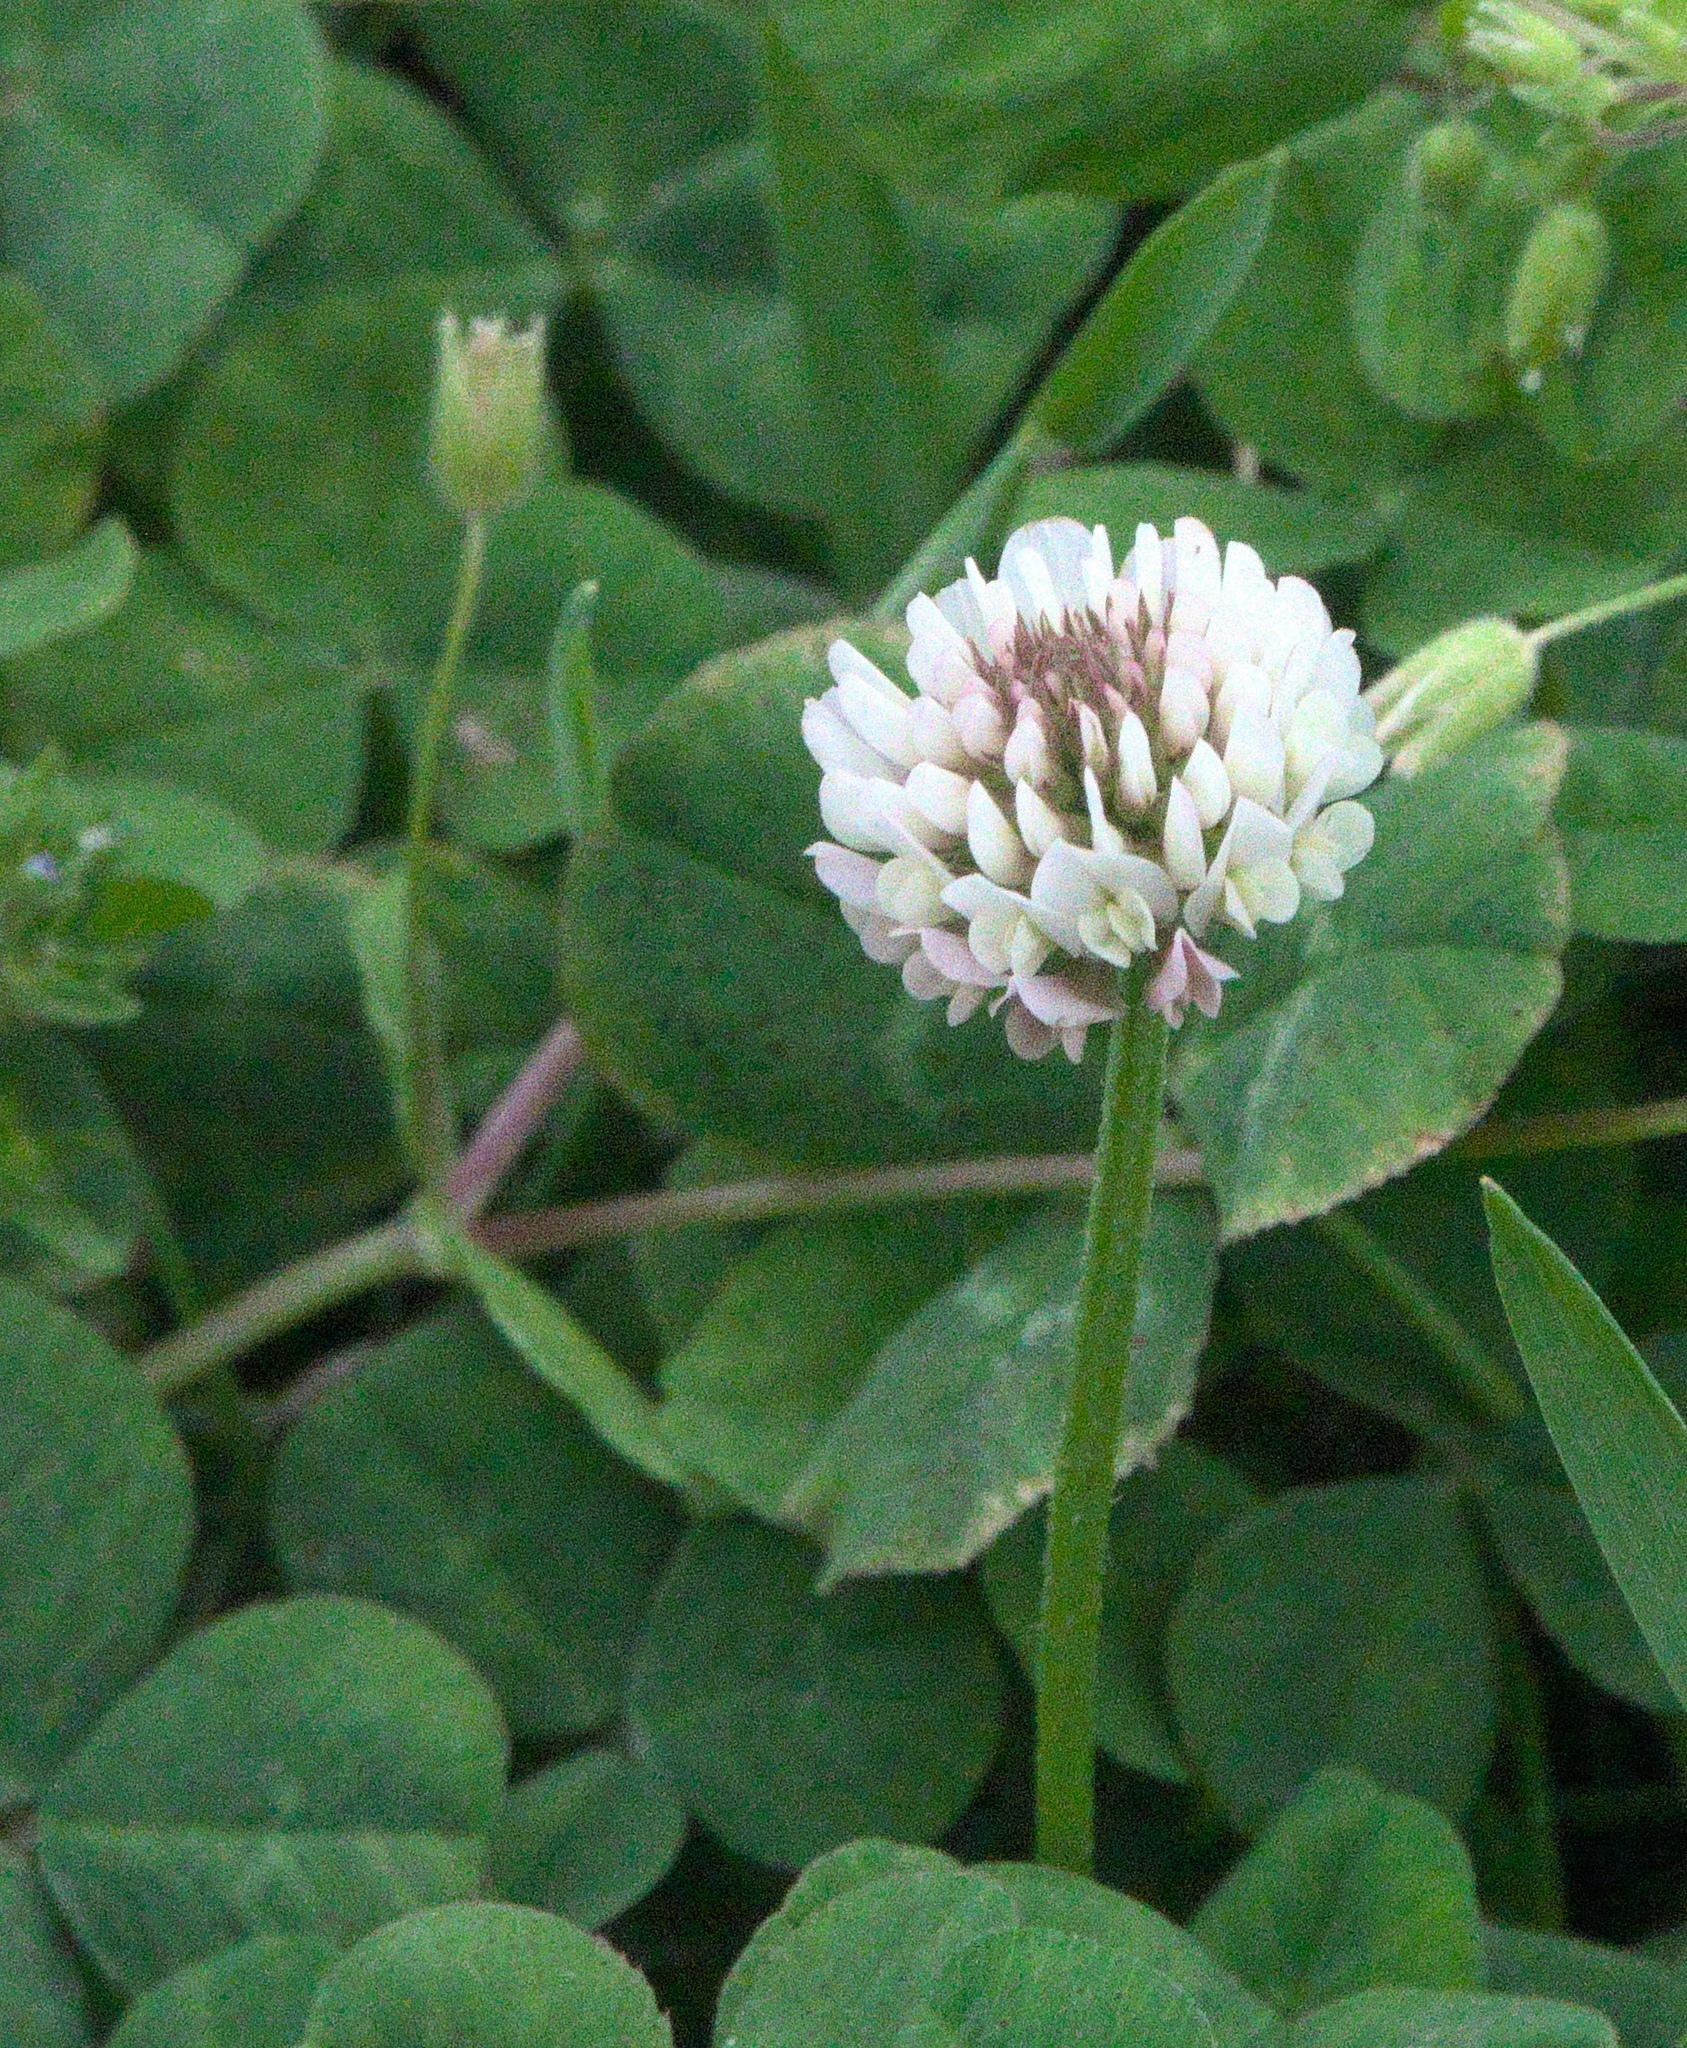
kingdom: Plantae
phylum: Tracheophyta
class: Magnoliopsida
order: Fabales
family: Fabaceae
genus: Trifolium
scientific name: Trifolium repens
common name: White clover
